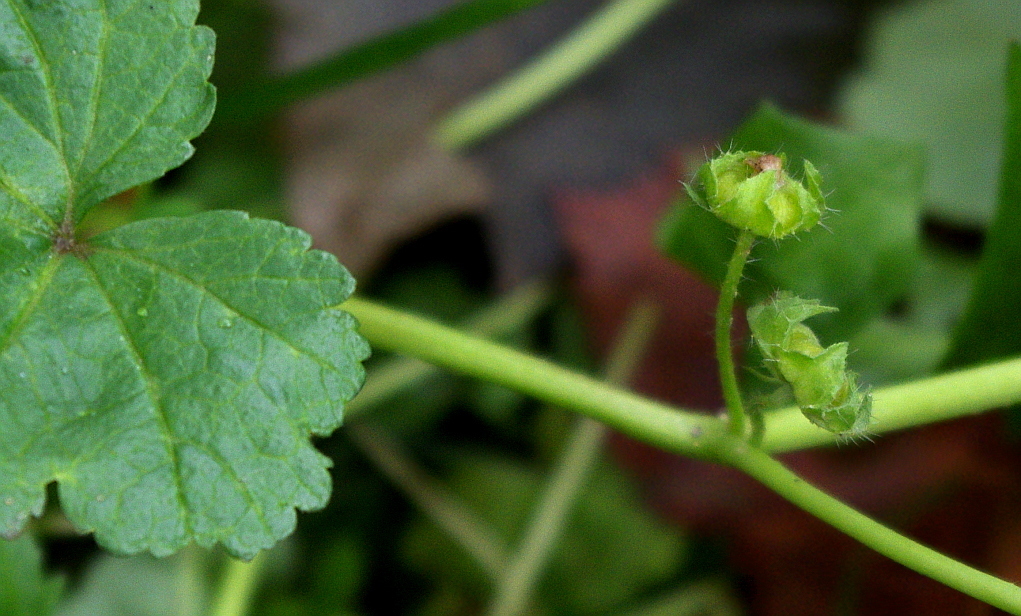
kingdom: Plantae
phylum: Tracheophyta
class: Magnoliopsida
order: Malvales
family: Malvaceae
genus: Malva
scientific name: Malva pusilla
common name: Small mallow
